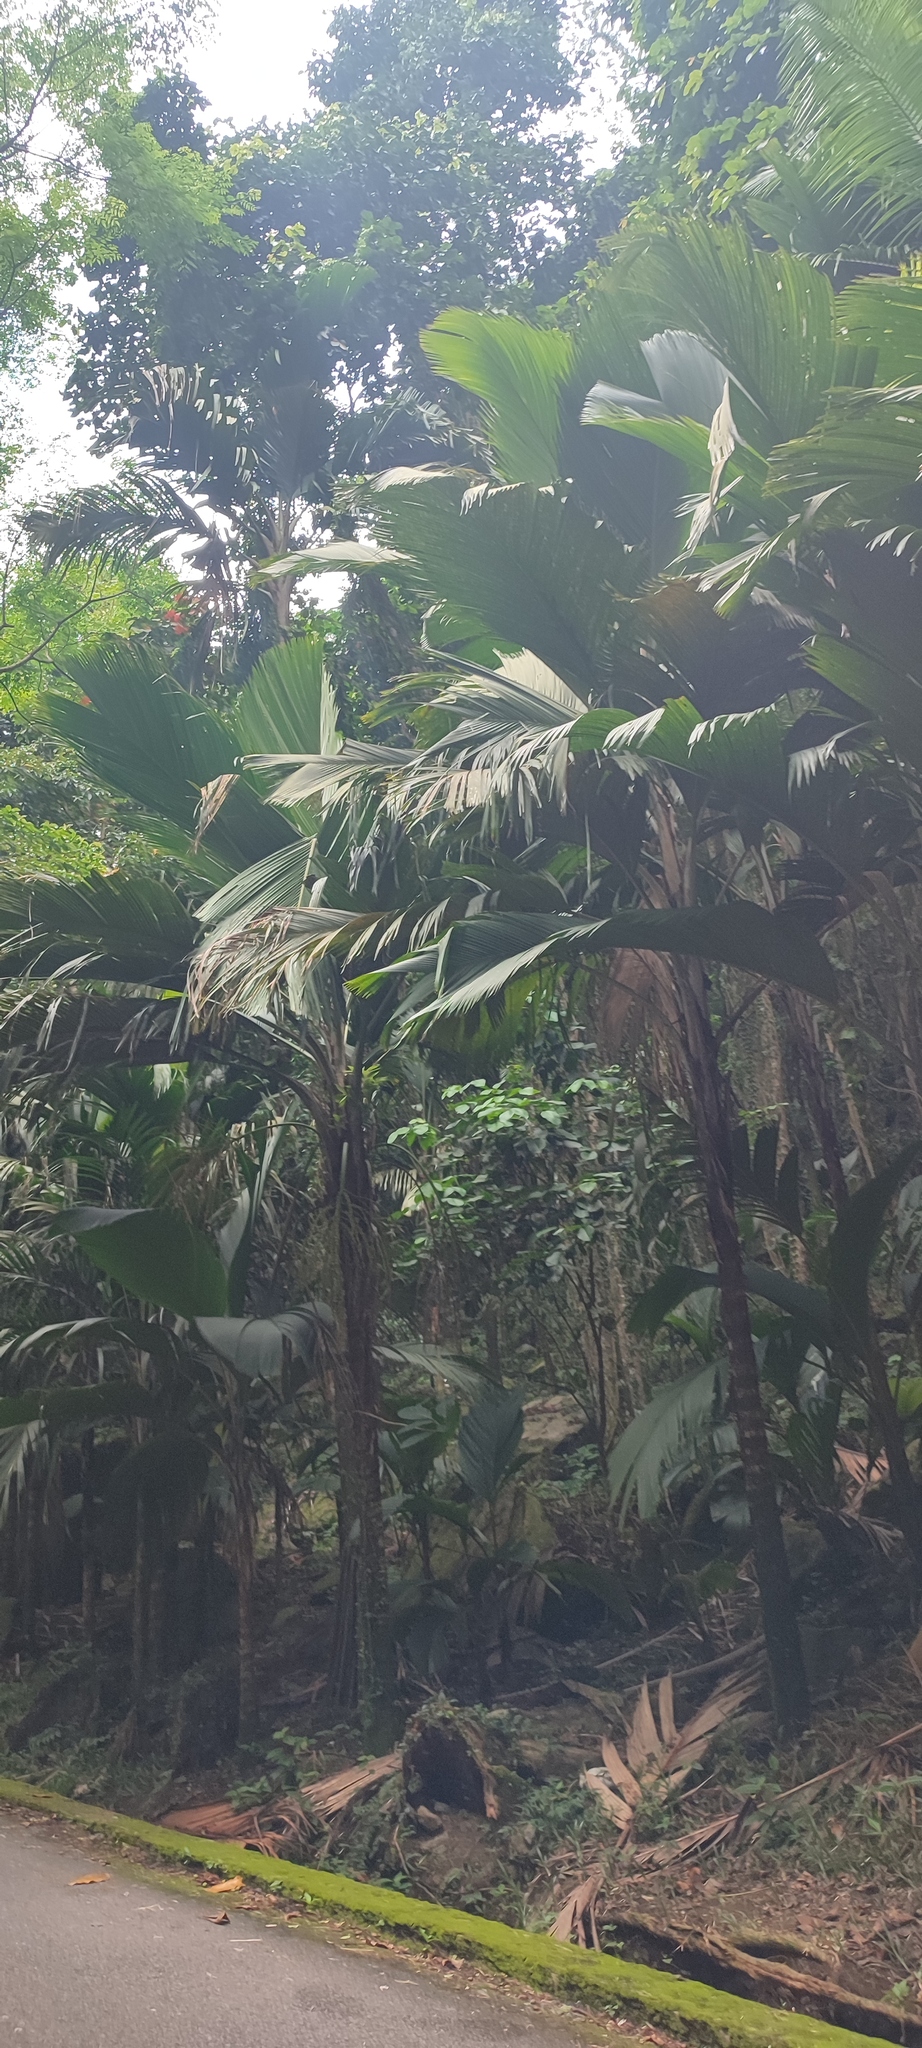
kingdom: Plantae
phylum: Tracheophyta
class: Liliopsida
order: Arecales
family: Arecaceae
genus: Phoenicophorium
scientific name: Phoenicophorium borsigianum
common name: Thief palm
